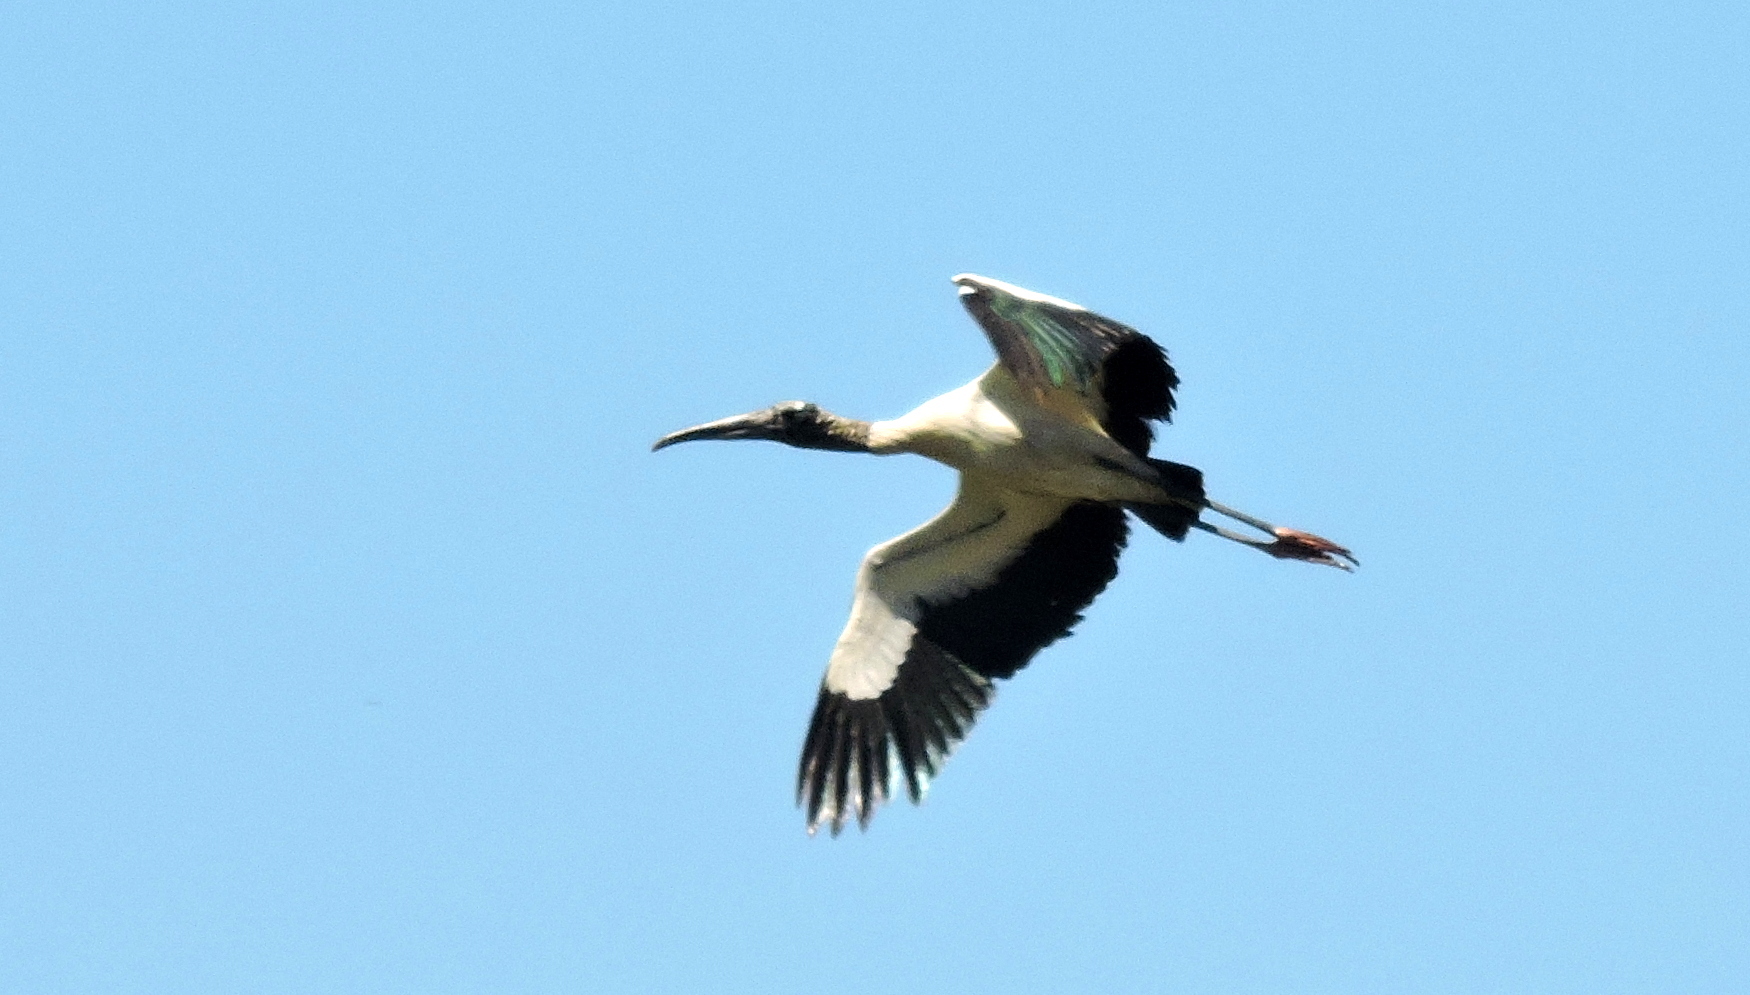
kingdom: Animalia
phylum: Chordata
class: Aves
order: Ciconiiformes
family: Ciconiidae
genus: Mycteria
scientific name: Mycteria americana
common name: Wood stork
